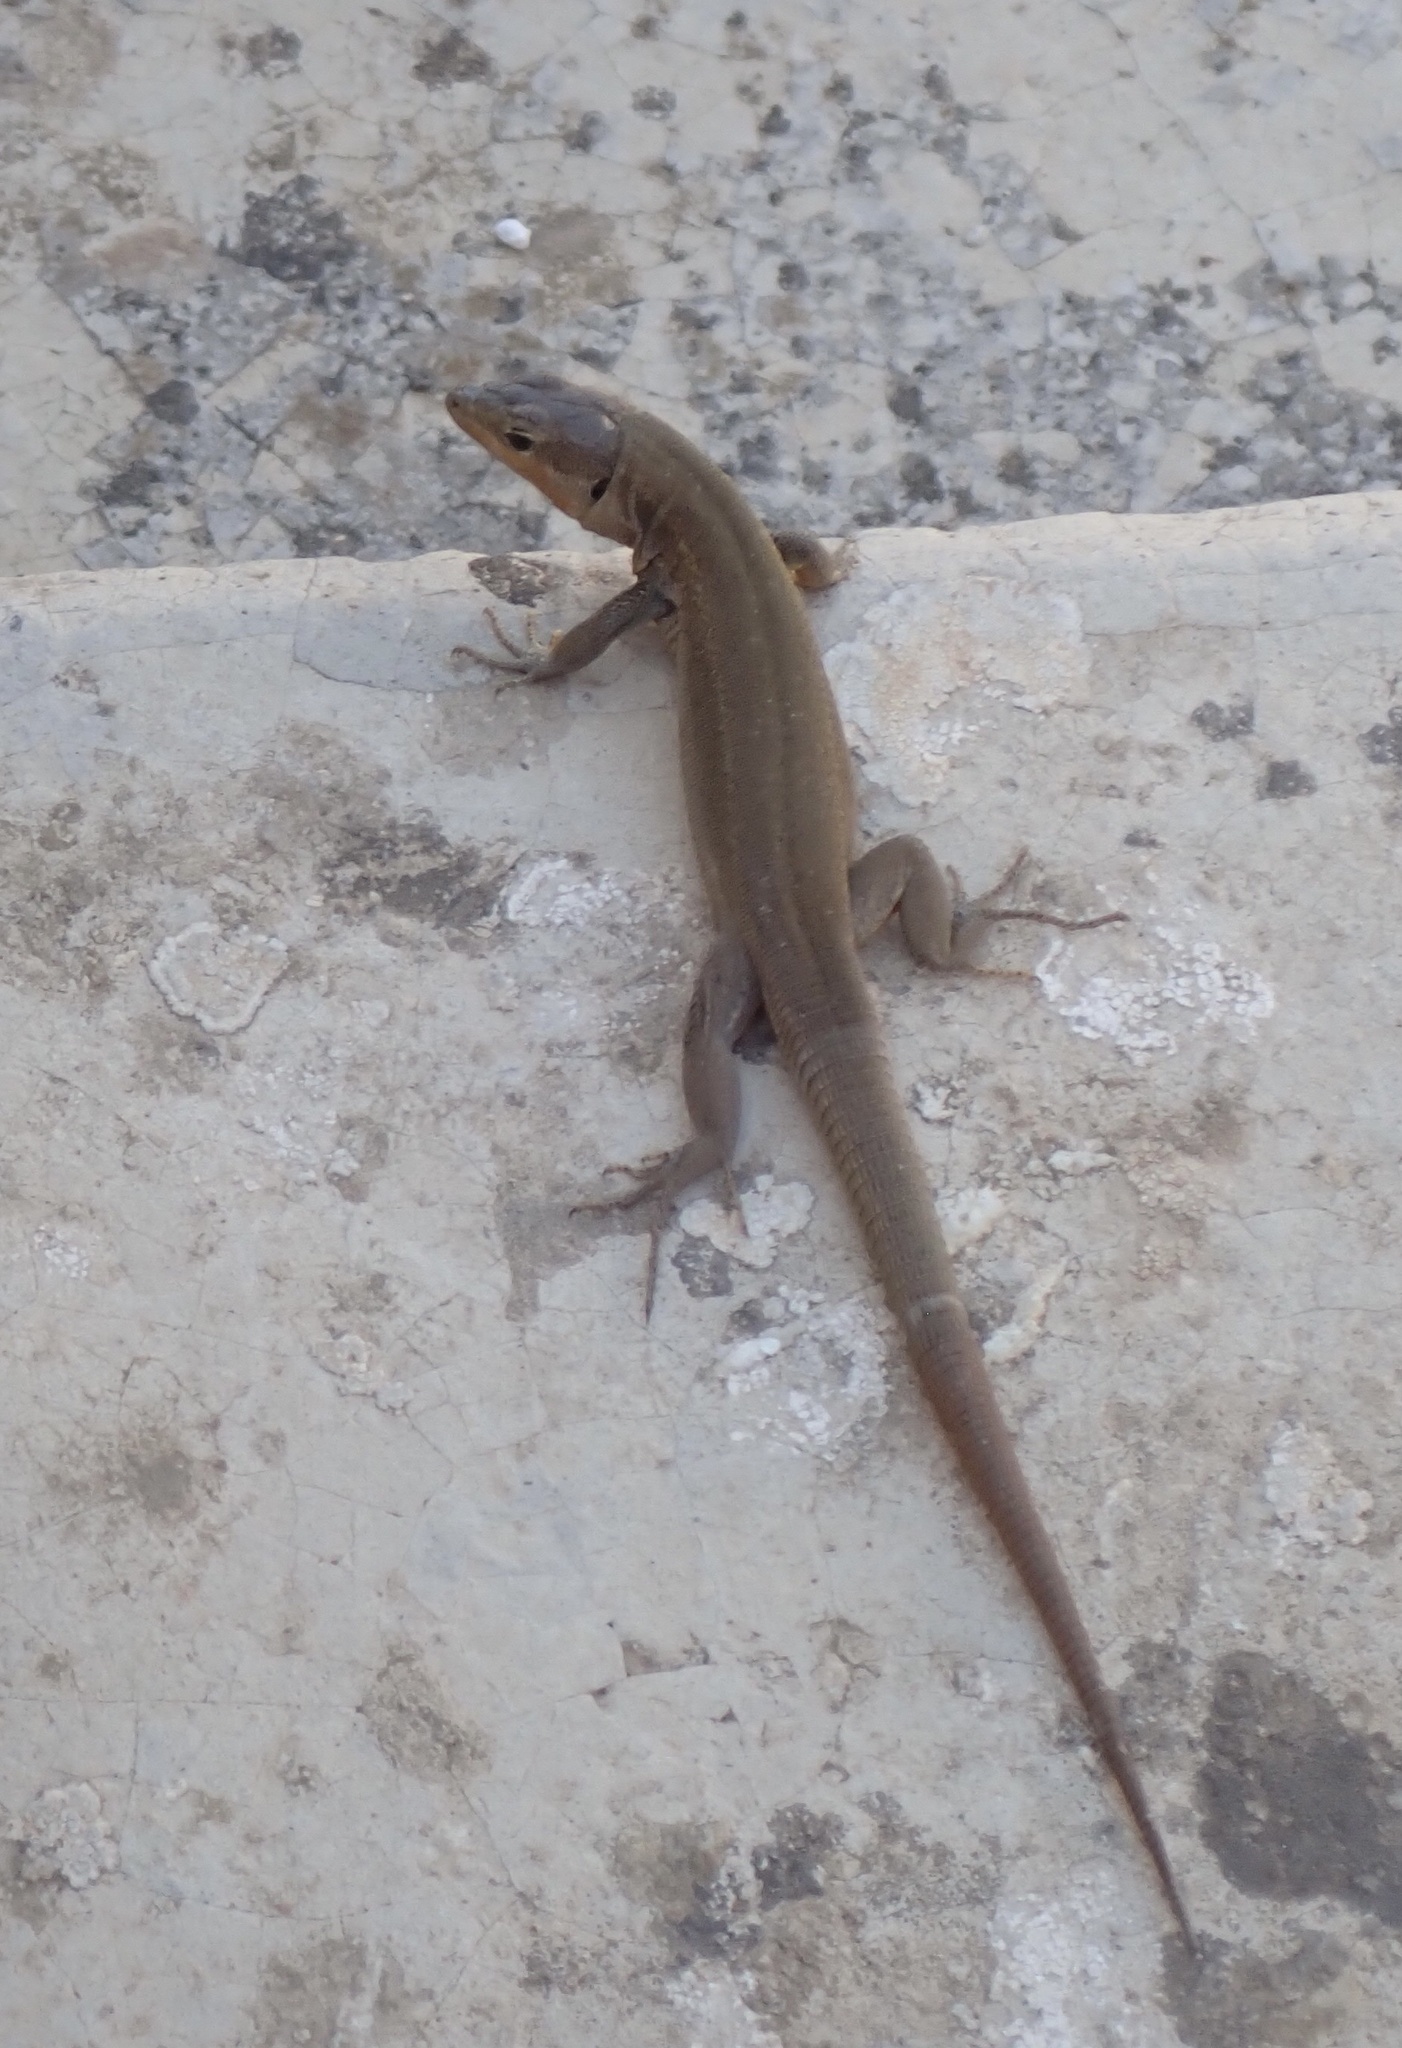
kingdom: Animalia
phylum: Chordata
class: Squamata
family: Lacertidae
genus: Podarcis
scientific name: Podarcis melisellensis
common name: Dalmatian wall lizard
